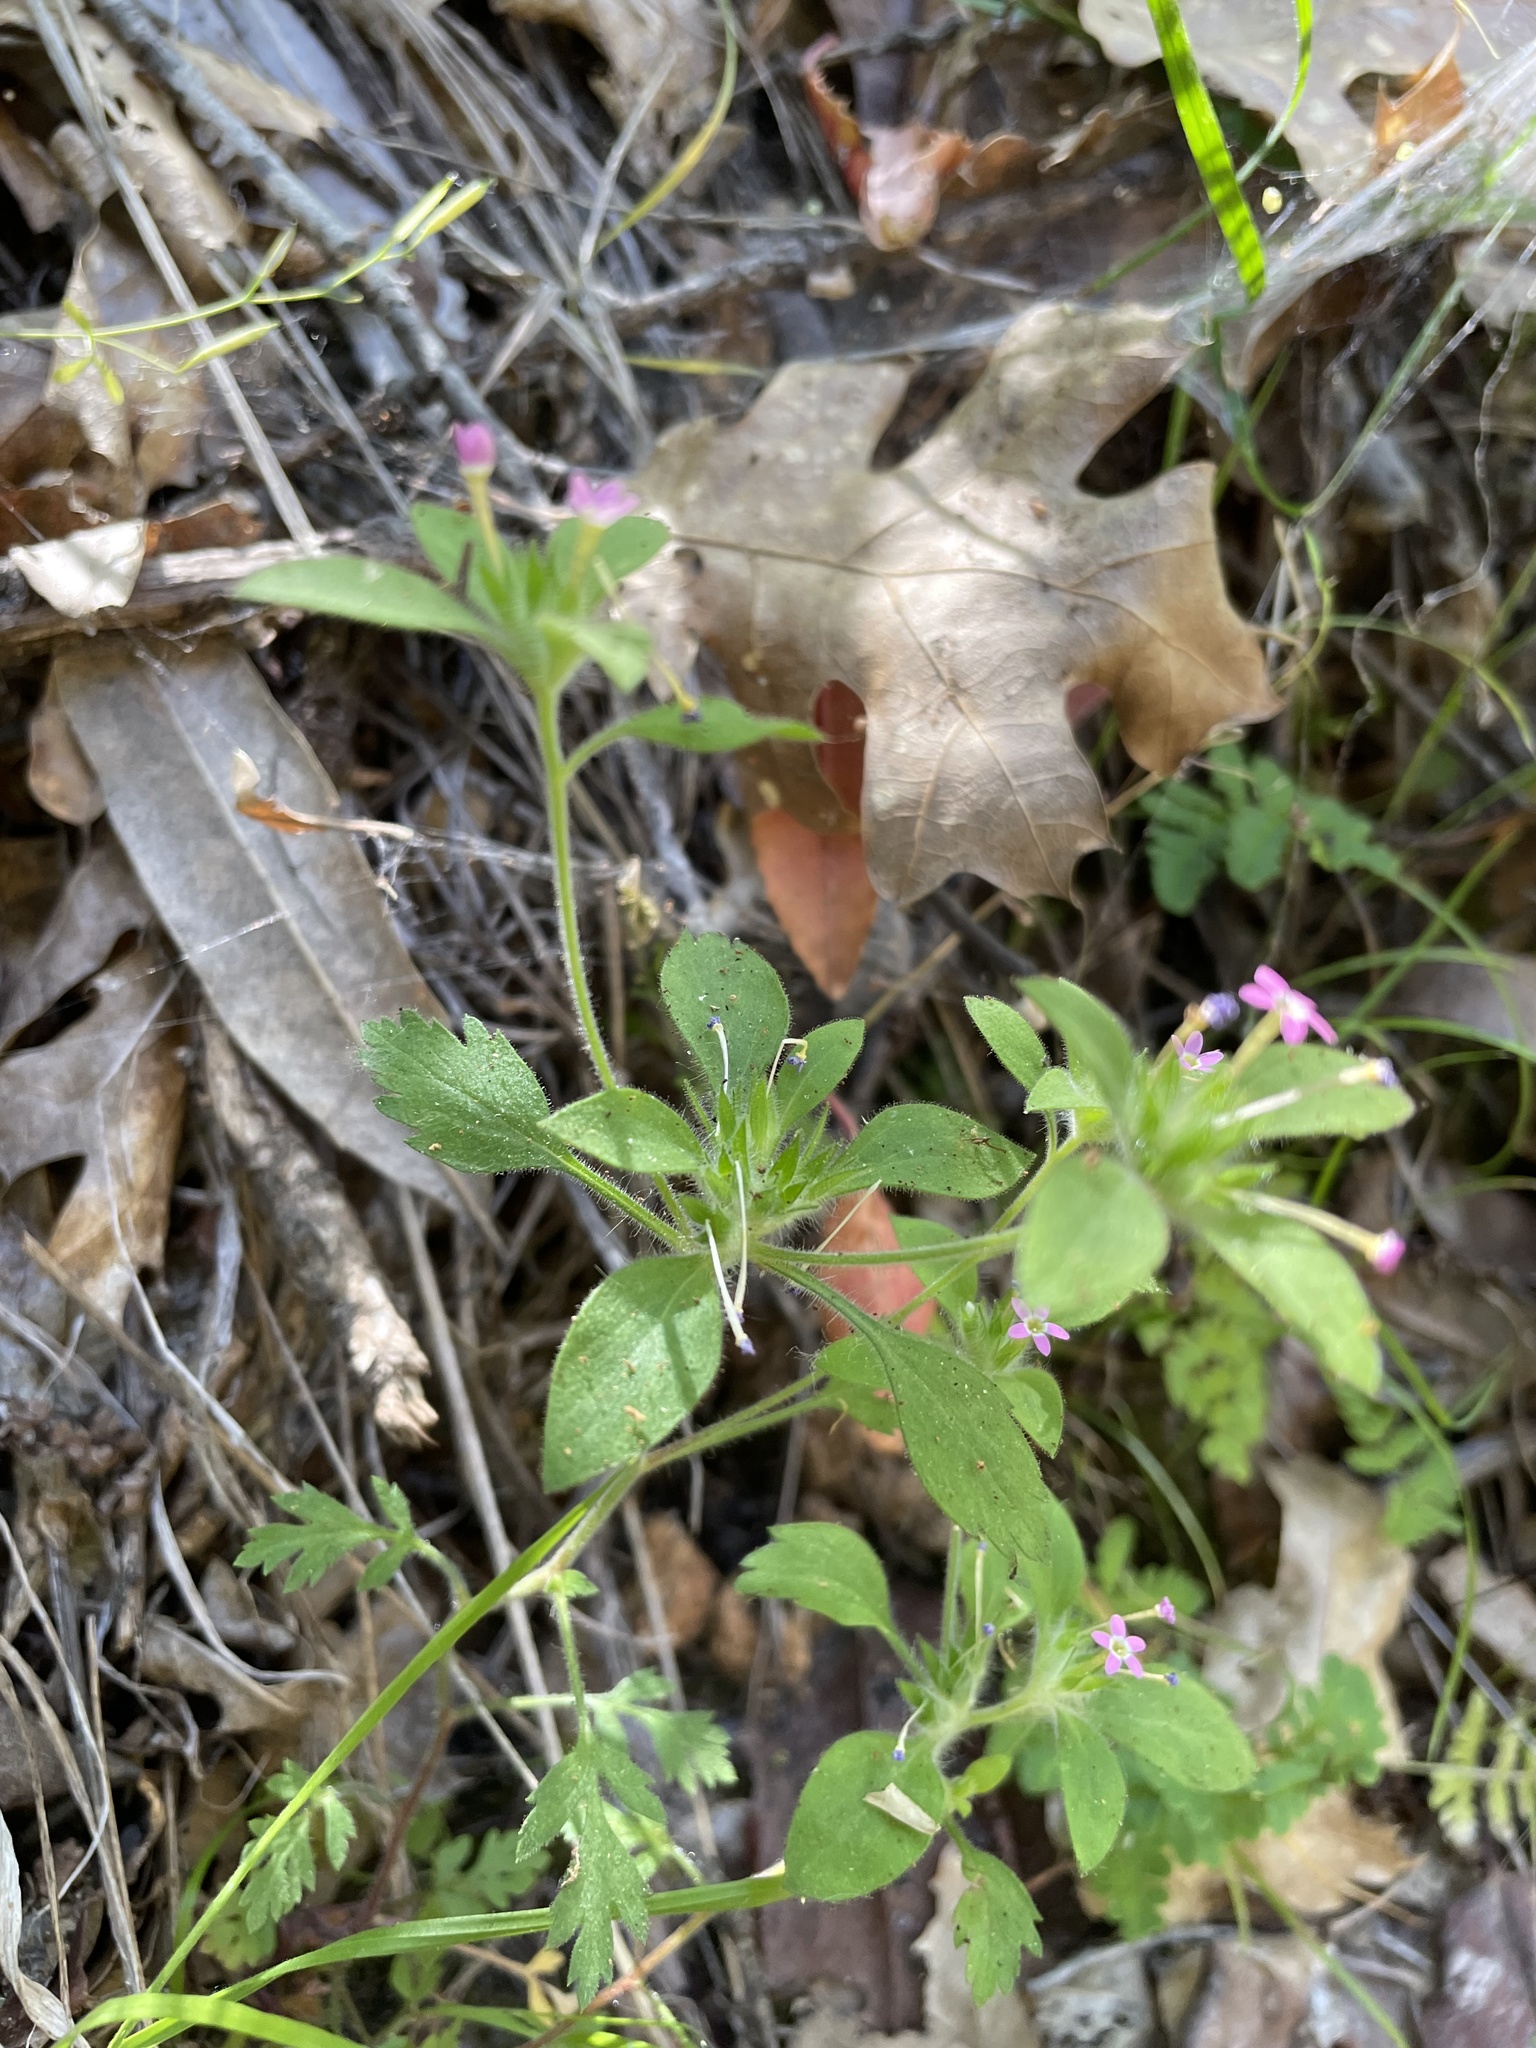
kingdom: Plantae
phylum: Tracheophyta
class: Magnoliopsida
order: Ericales
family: Polemoniaceae
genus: Collomia
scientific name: Collomia heterophylla
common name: Variable-leaved collomia
